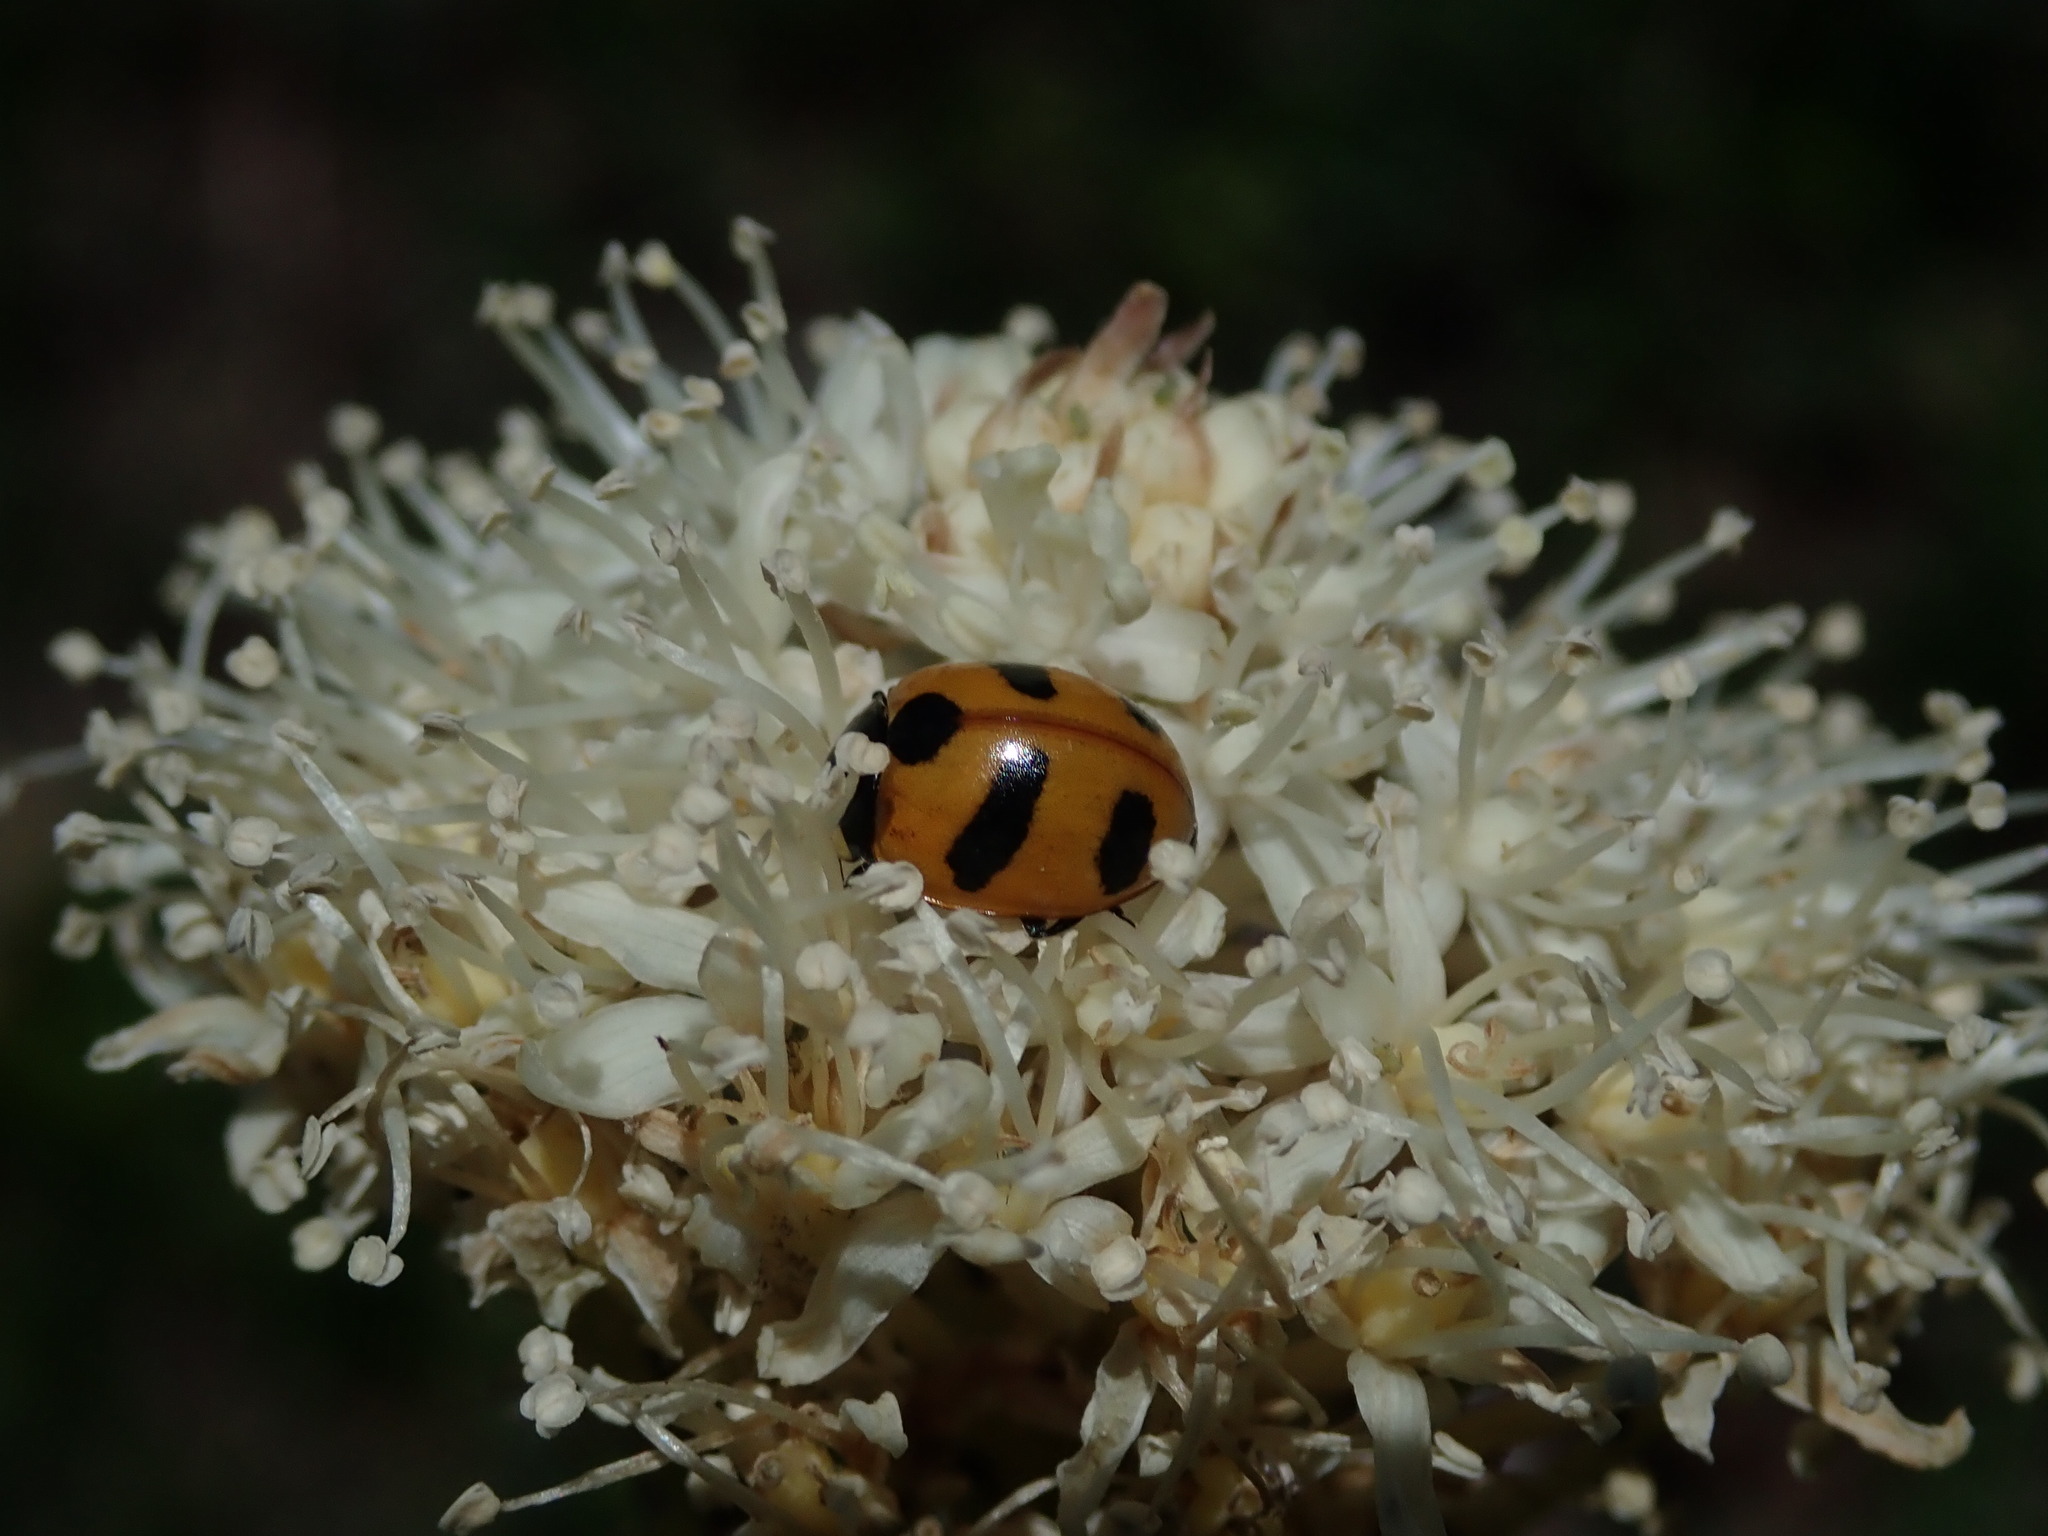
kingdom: Animalia
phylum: Arthropoda
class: Insecta
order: Coleoptera
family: Coccinellidae
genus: Coccinella
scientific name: Coccinella monticola
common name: Mountain lady beetle
